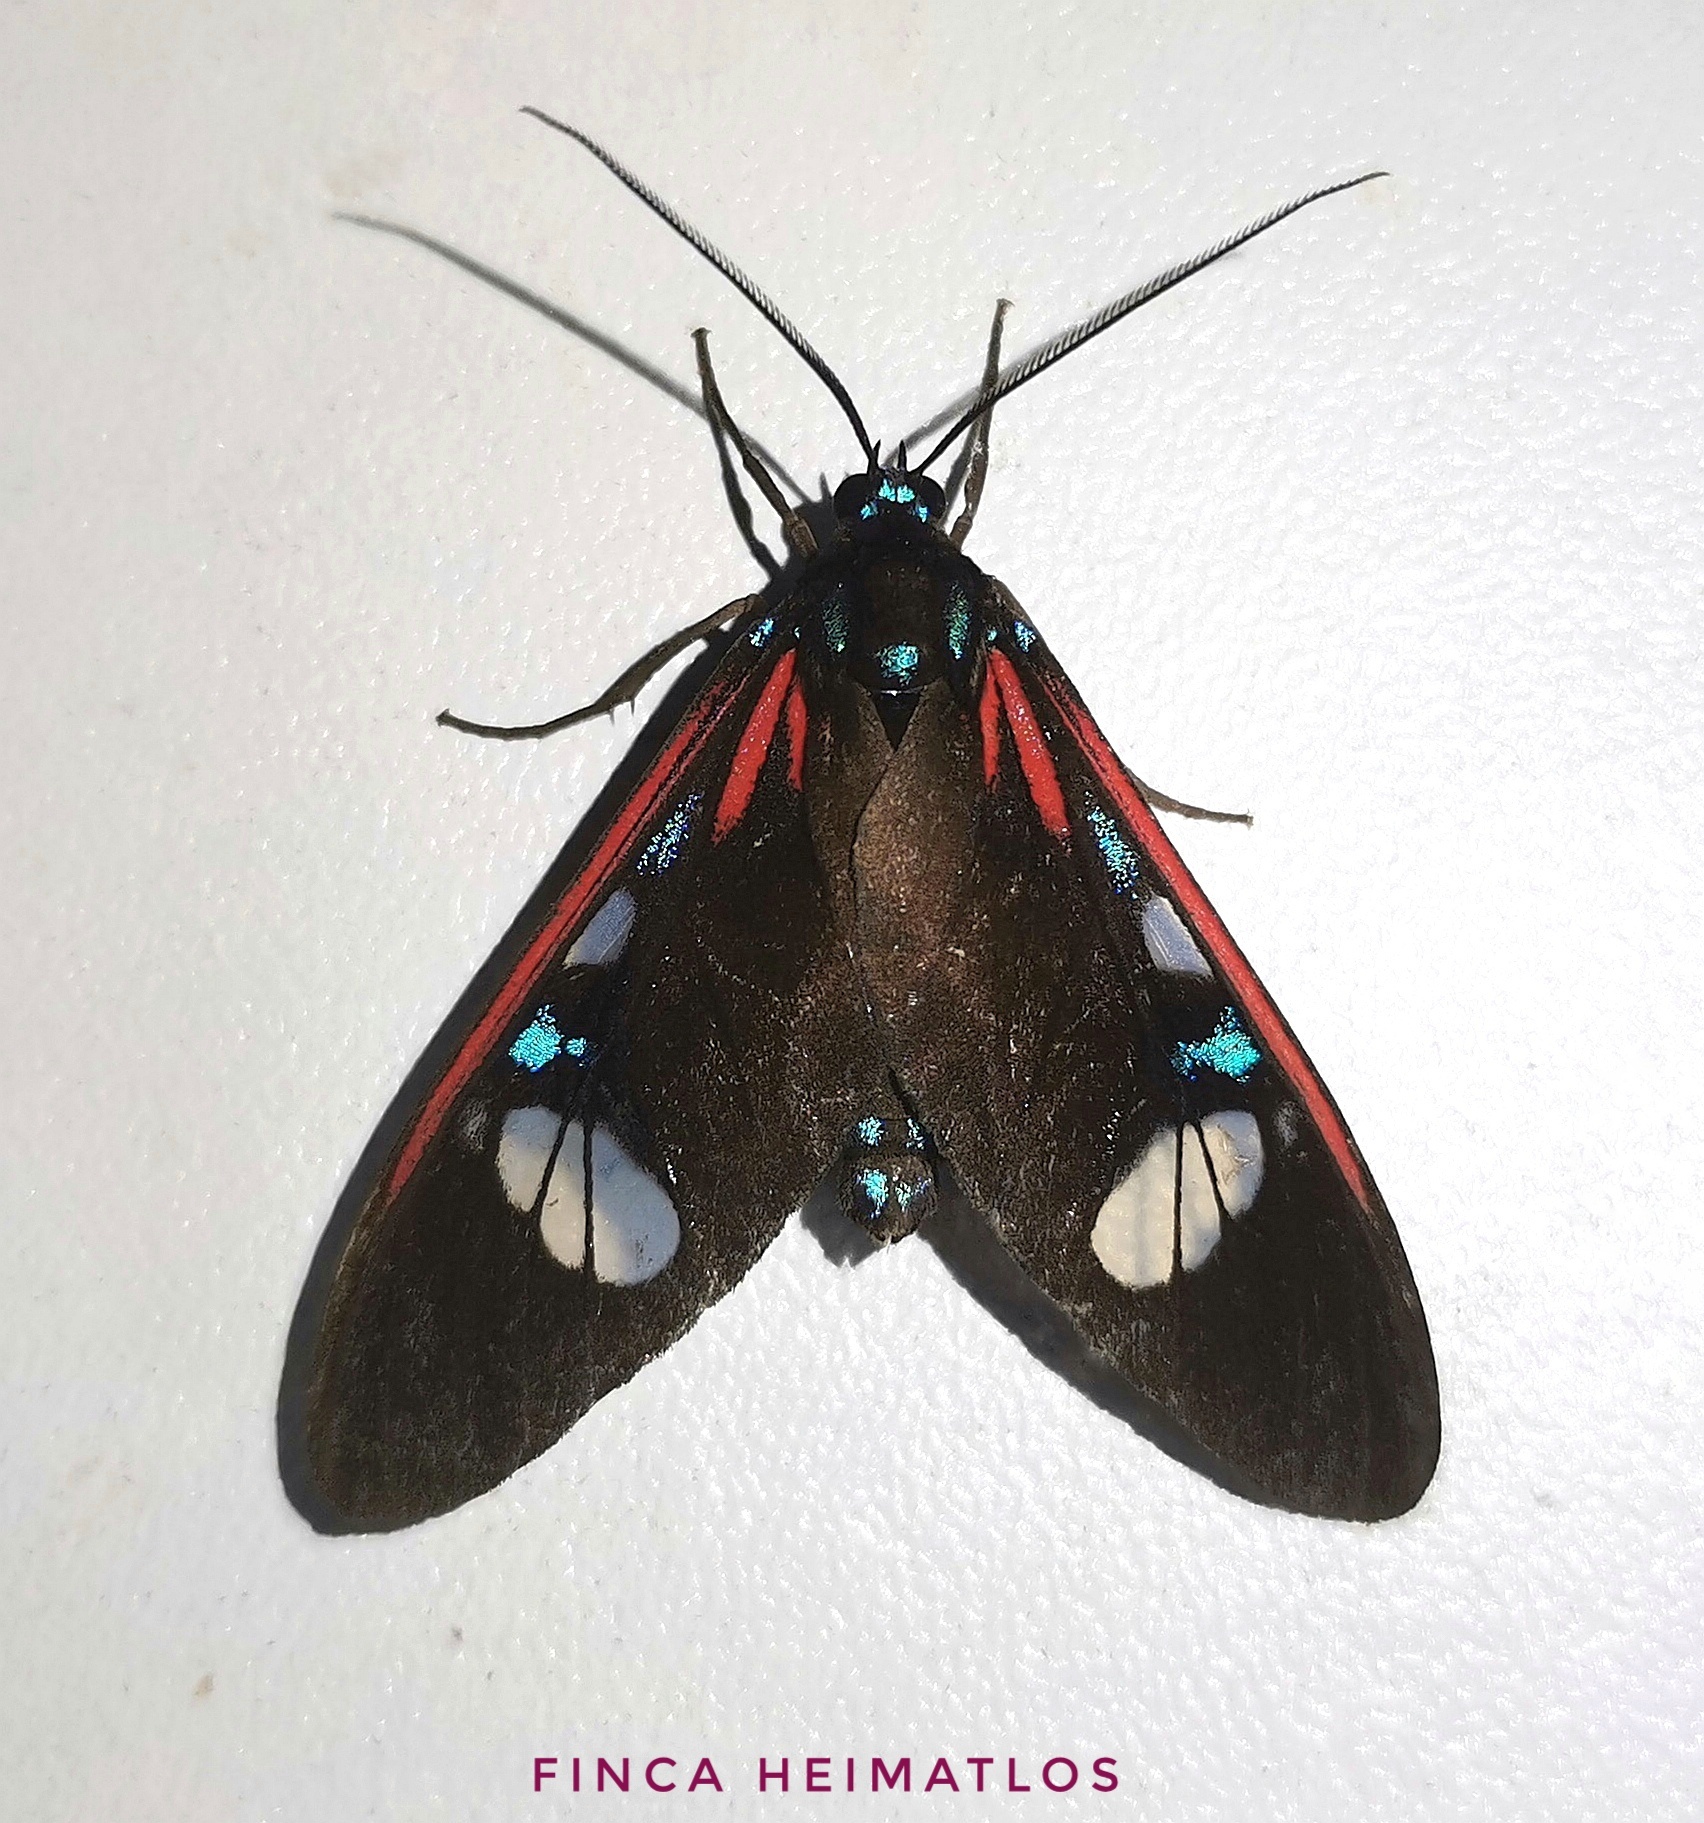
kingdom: Animalia
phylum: Arthropoda
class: Insecta
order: Lepidoptera
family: Erebidae
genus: Euclera
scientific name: Euclera meones
